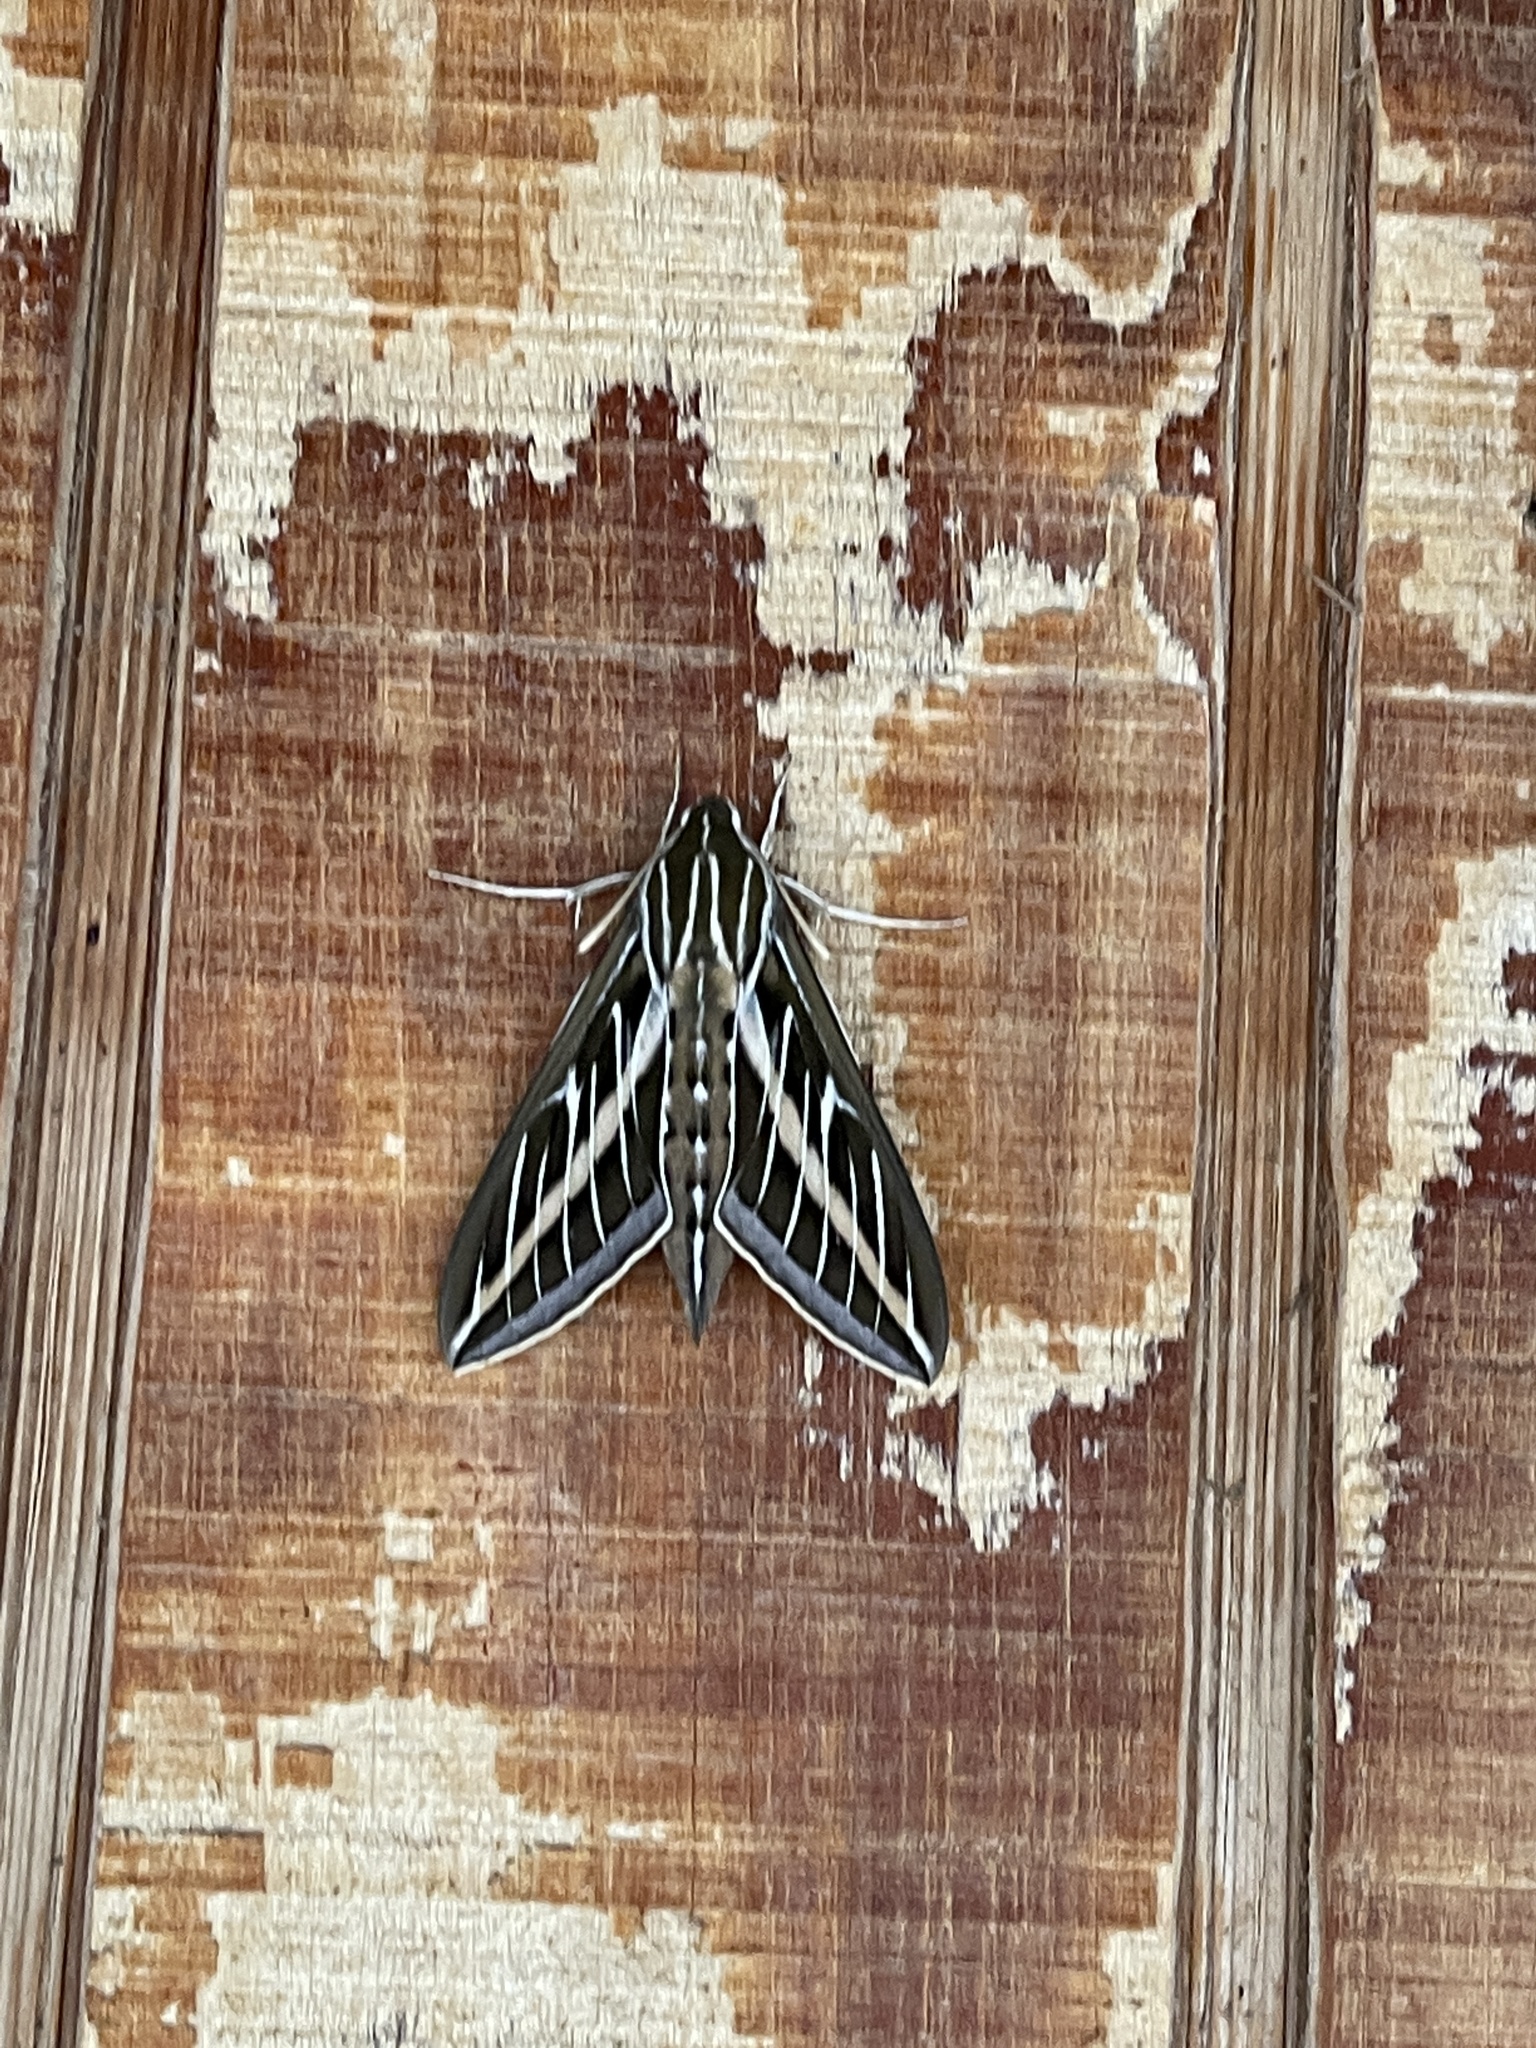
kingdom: Animalia
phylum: Arthropoda
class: Insecta
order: Lepidoptera
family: Sphingidae
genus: Hyles
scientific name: Hyles lineata
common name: White-lined sphinx
